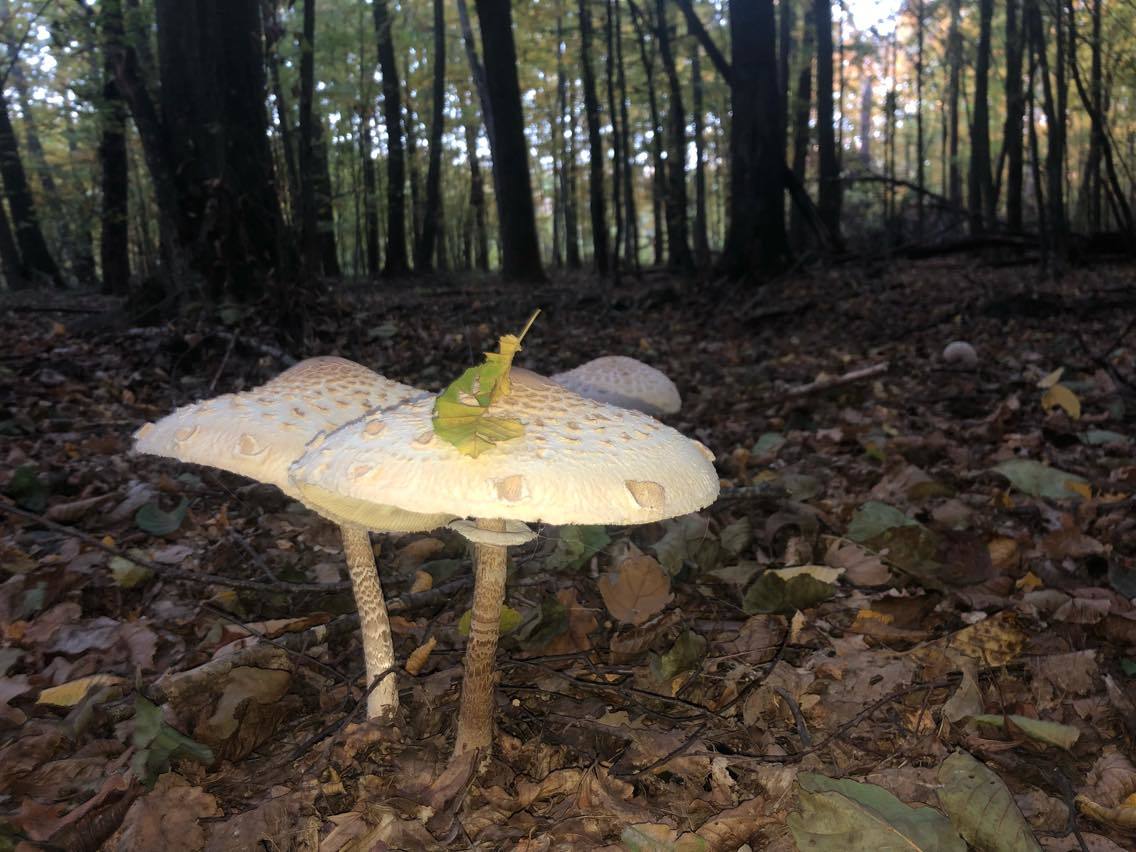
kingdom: Fungi
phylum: Basidiomycota
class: Agaricomycetes
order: Agaricales
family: Agaricaceae
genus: Macrolepiota
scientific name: Macrolepiota procera
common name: Parasol
